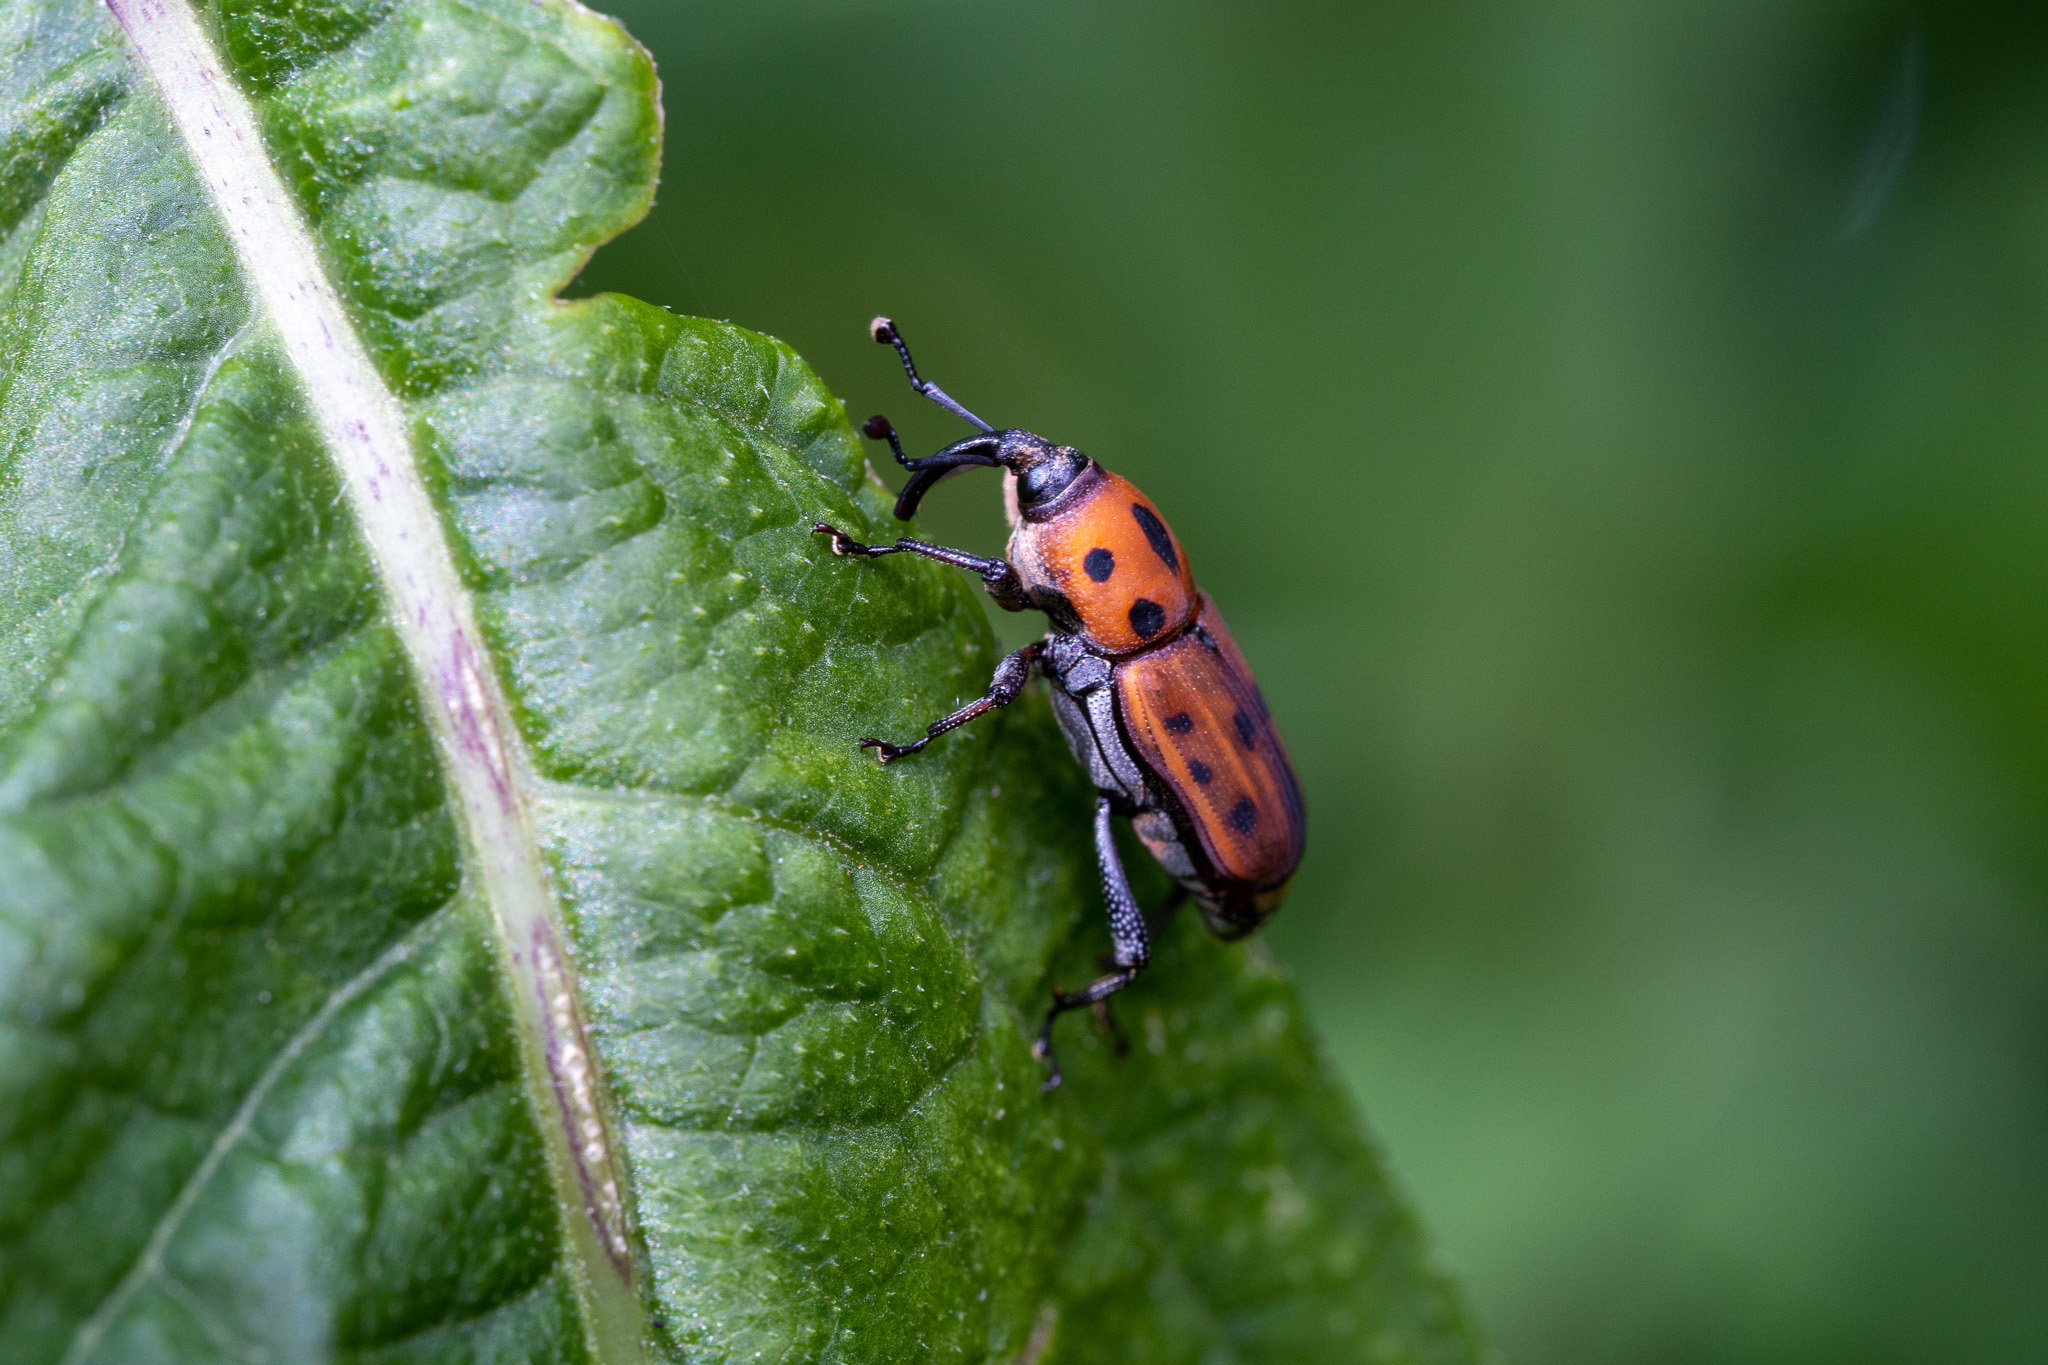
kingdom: Animalia
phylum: Arthropoda
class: Insecta
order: Coleoptera
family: Dryophthoridae
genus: Rhodobaenus
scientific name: Rhodobaenus quinquepunctatus
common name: Cocklebur weevil
